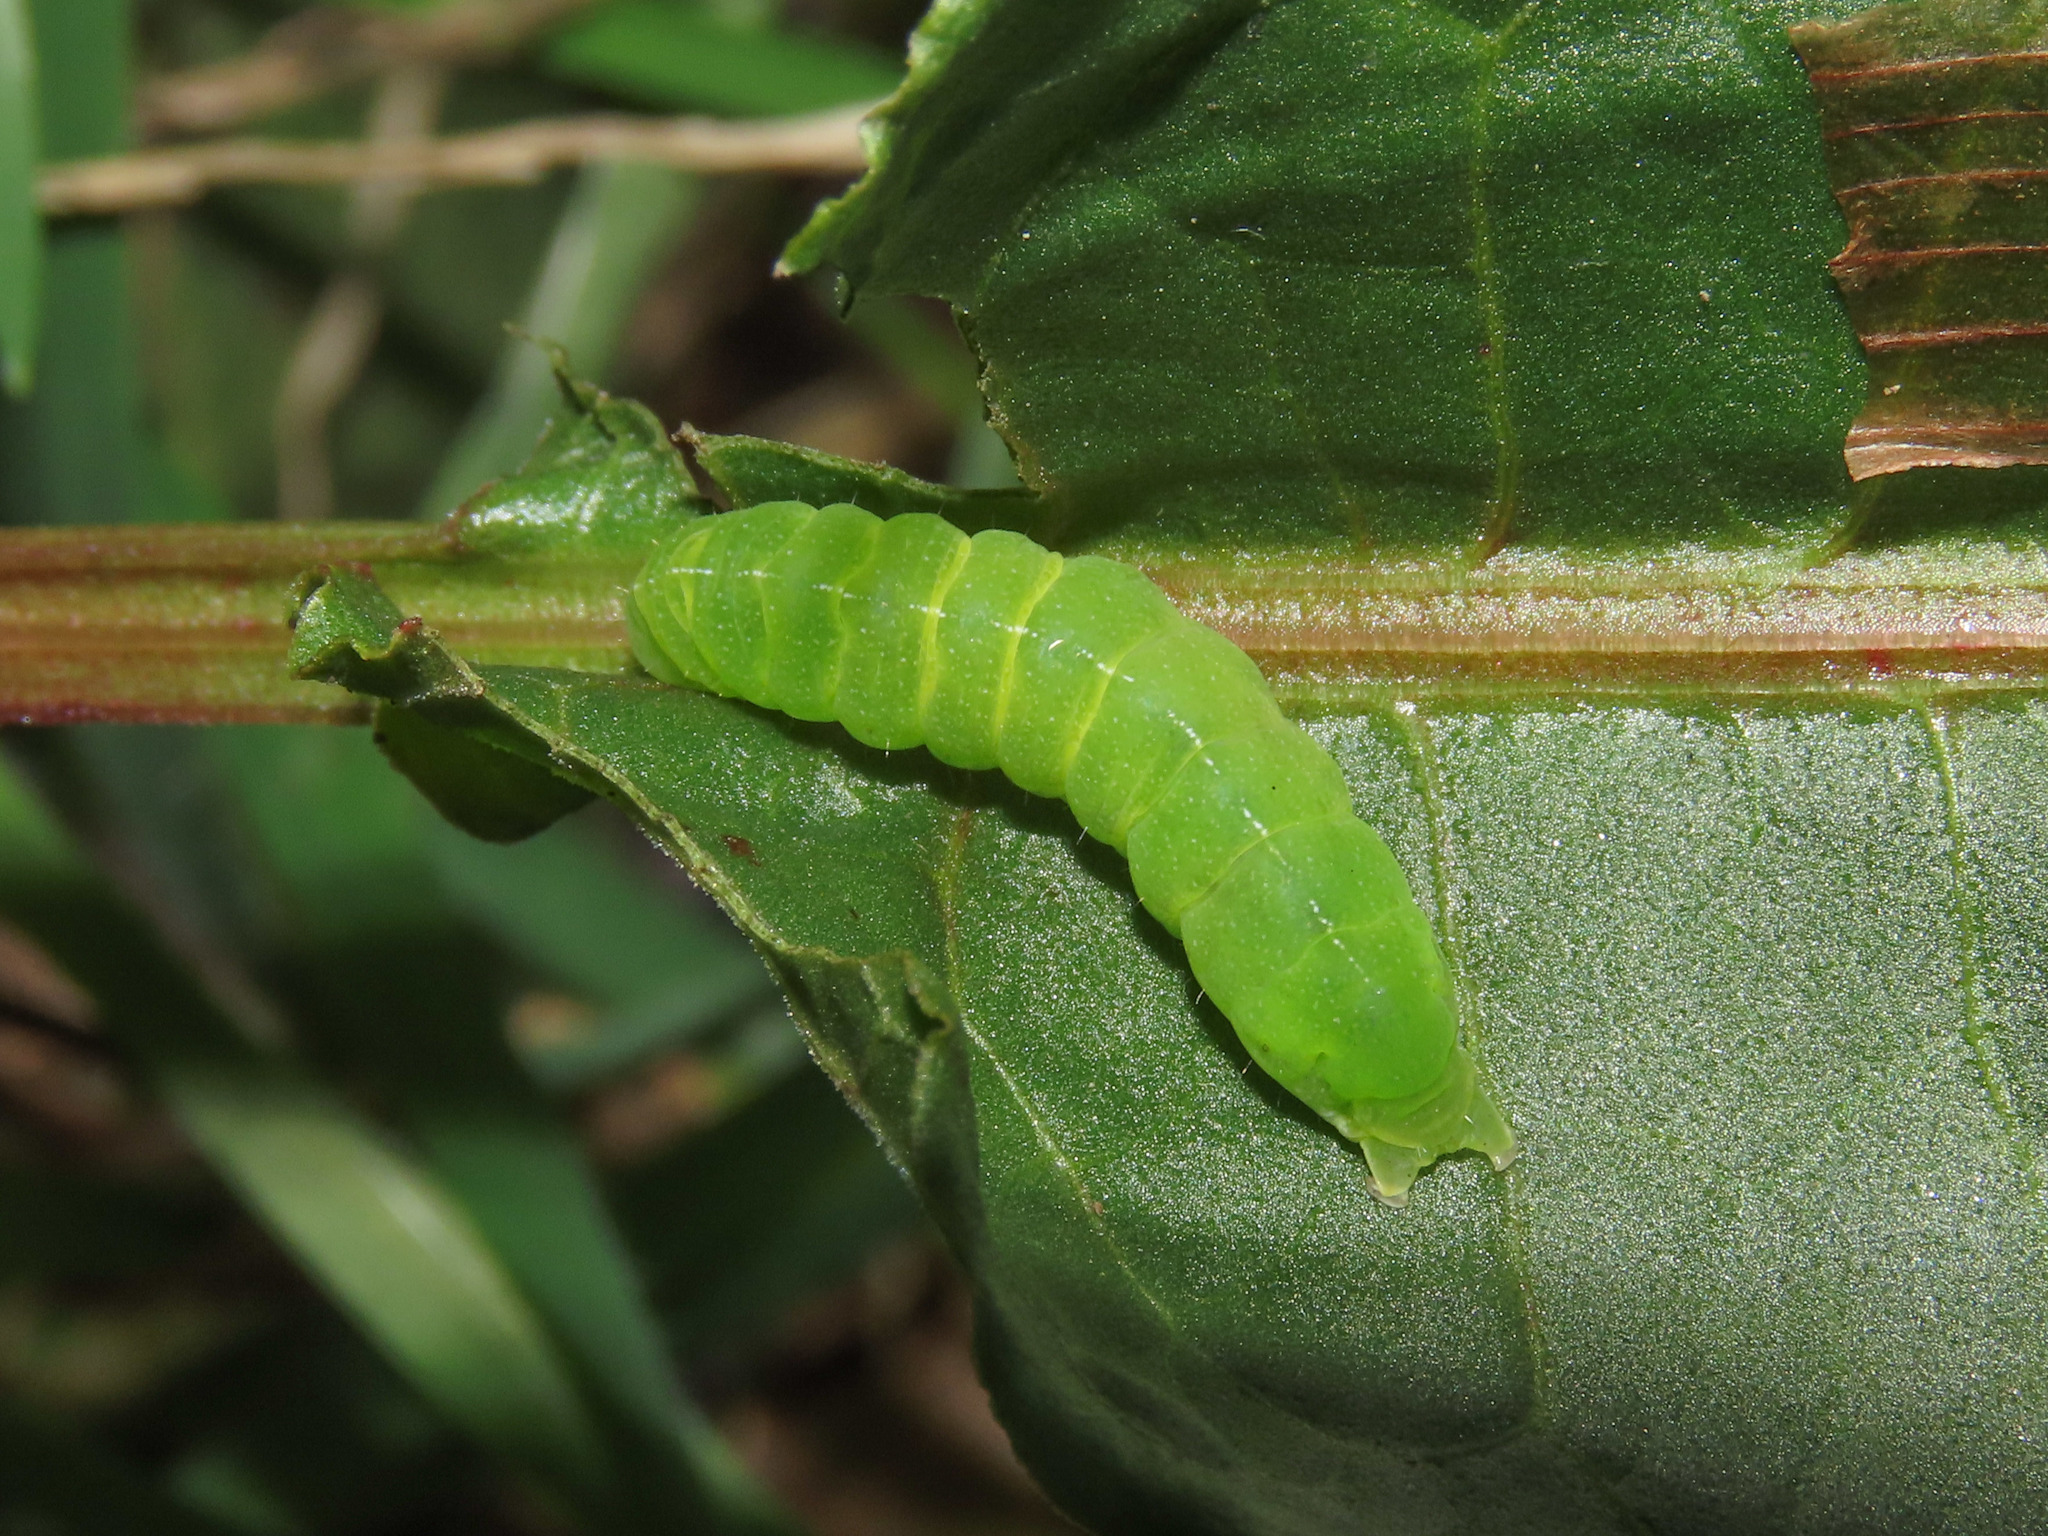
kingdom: Animalia
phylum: Arthropoda
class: Insecta
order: Lepidoptera
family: Noctuidae
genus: Phlogophora
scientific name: Phlogophora meticulosa
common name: Angle shades
